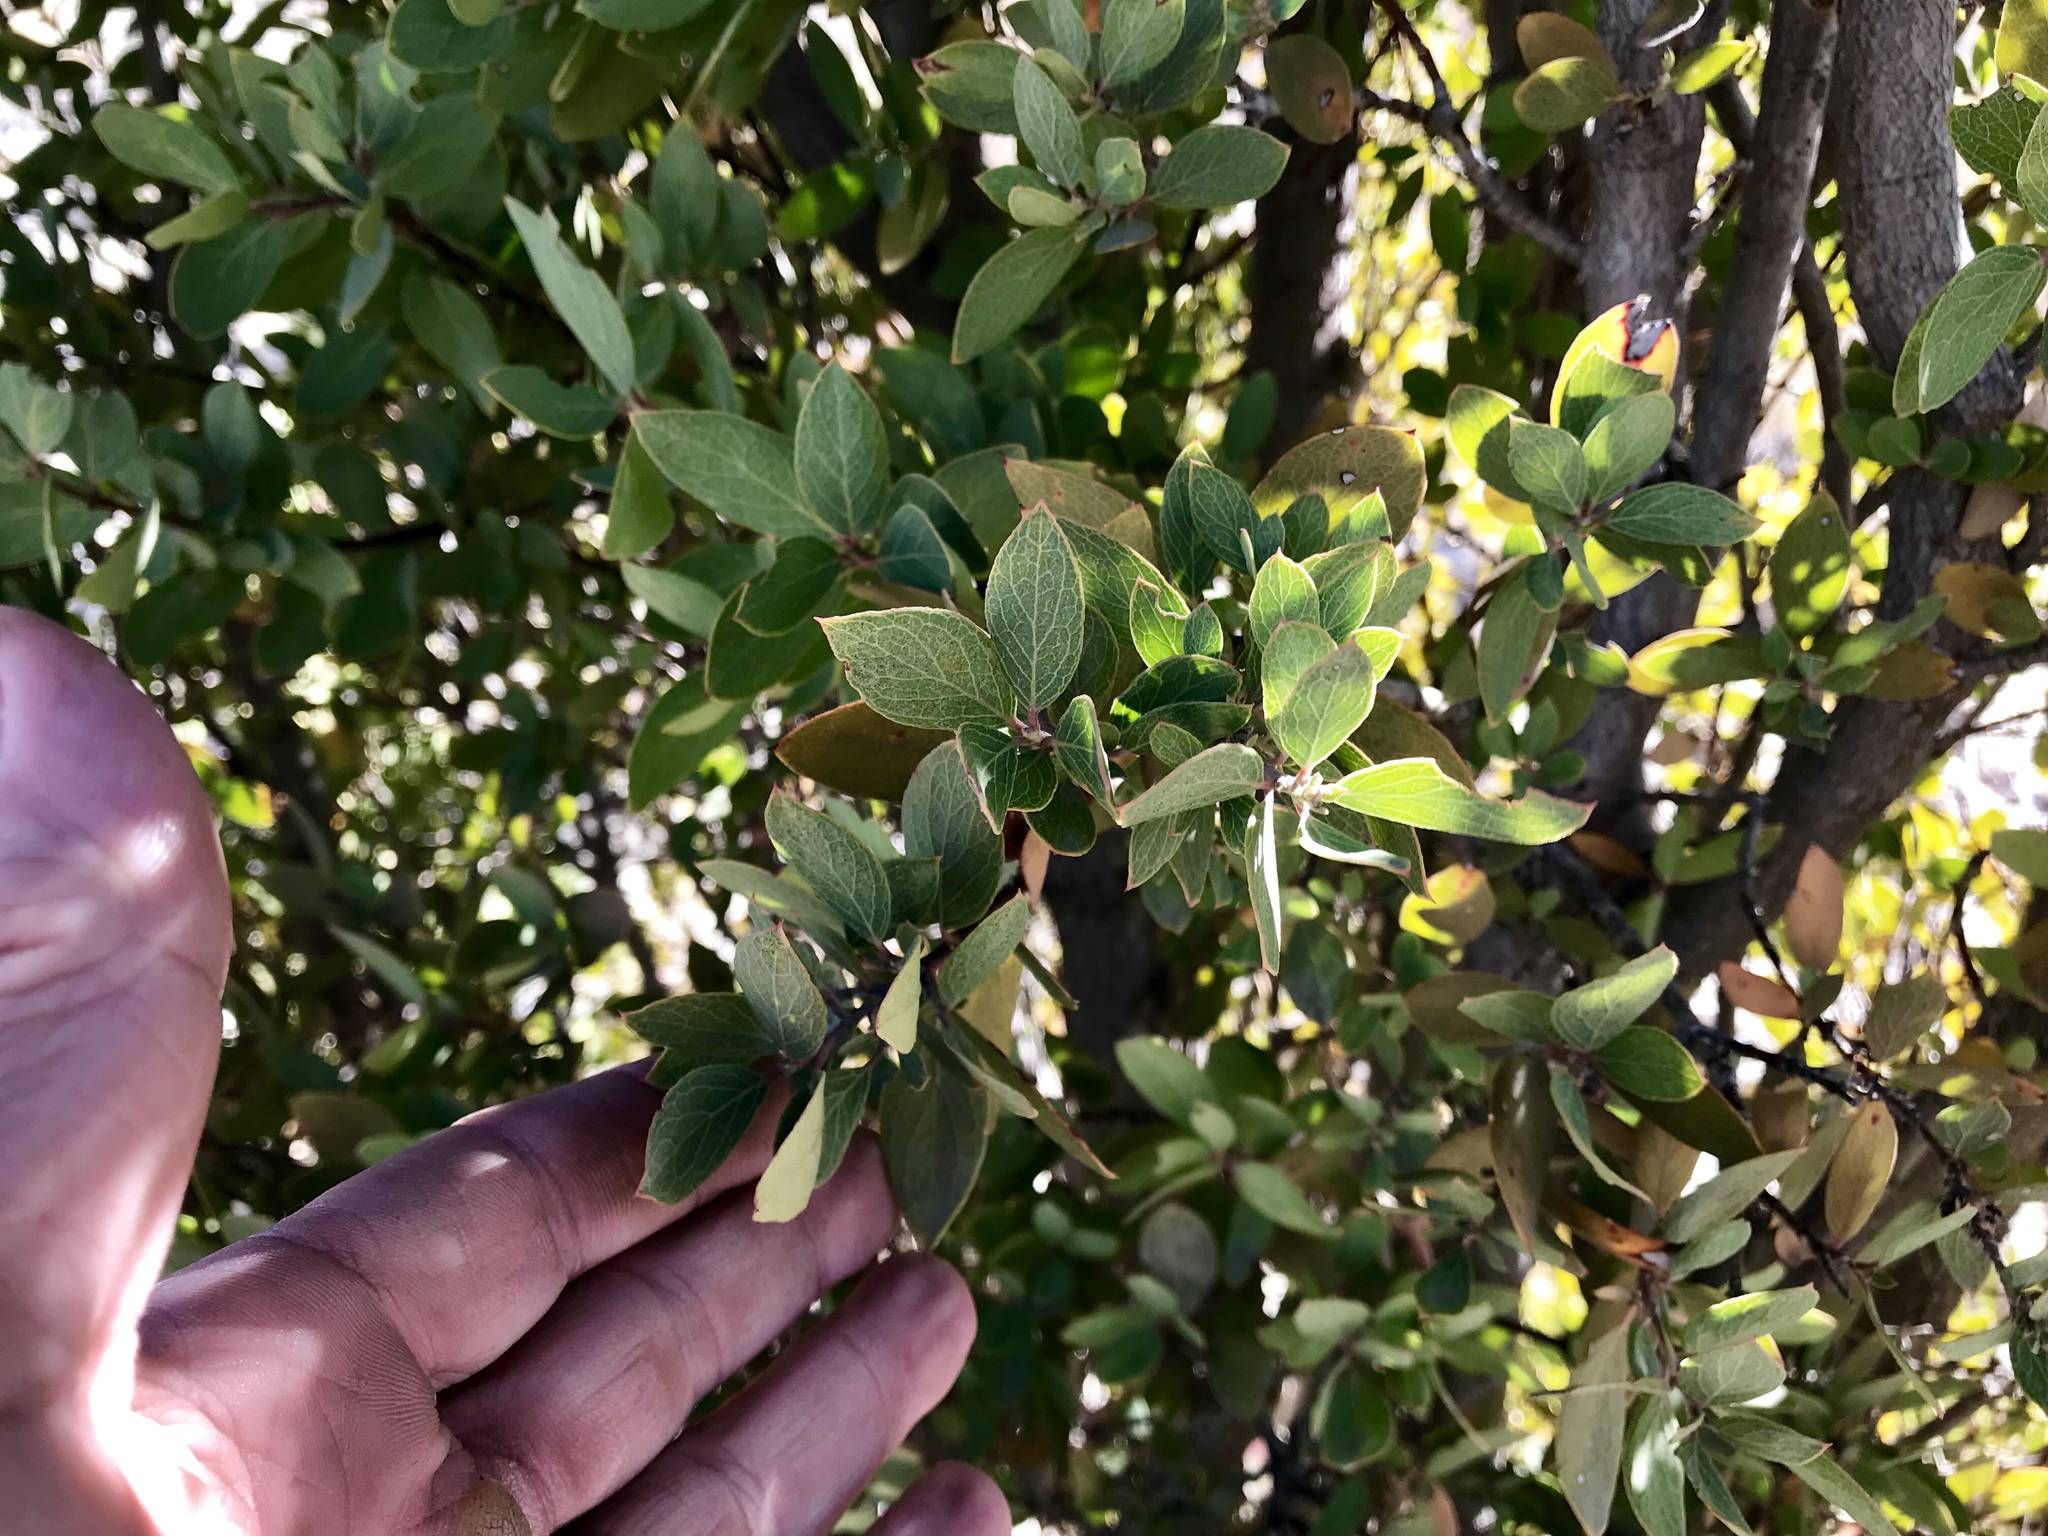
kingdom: Plantae
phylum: Tracheophyta
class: Magnoliopsida
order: Garryales
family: Garryaceae
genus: Garrya
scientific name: Garrya wrightii
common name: Wright's silktassel
